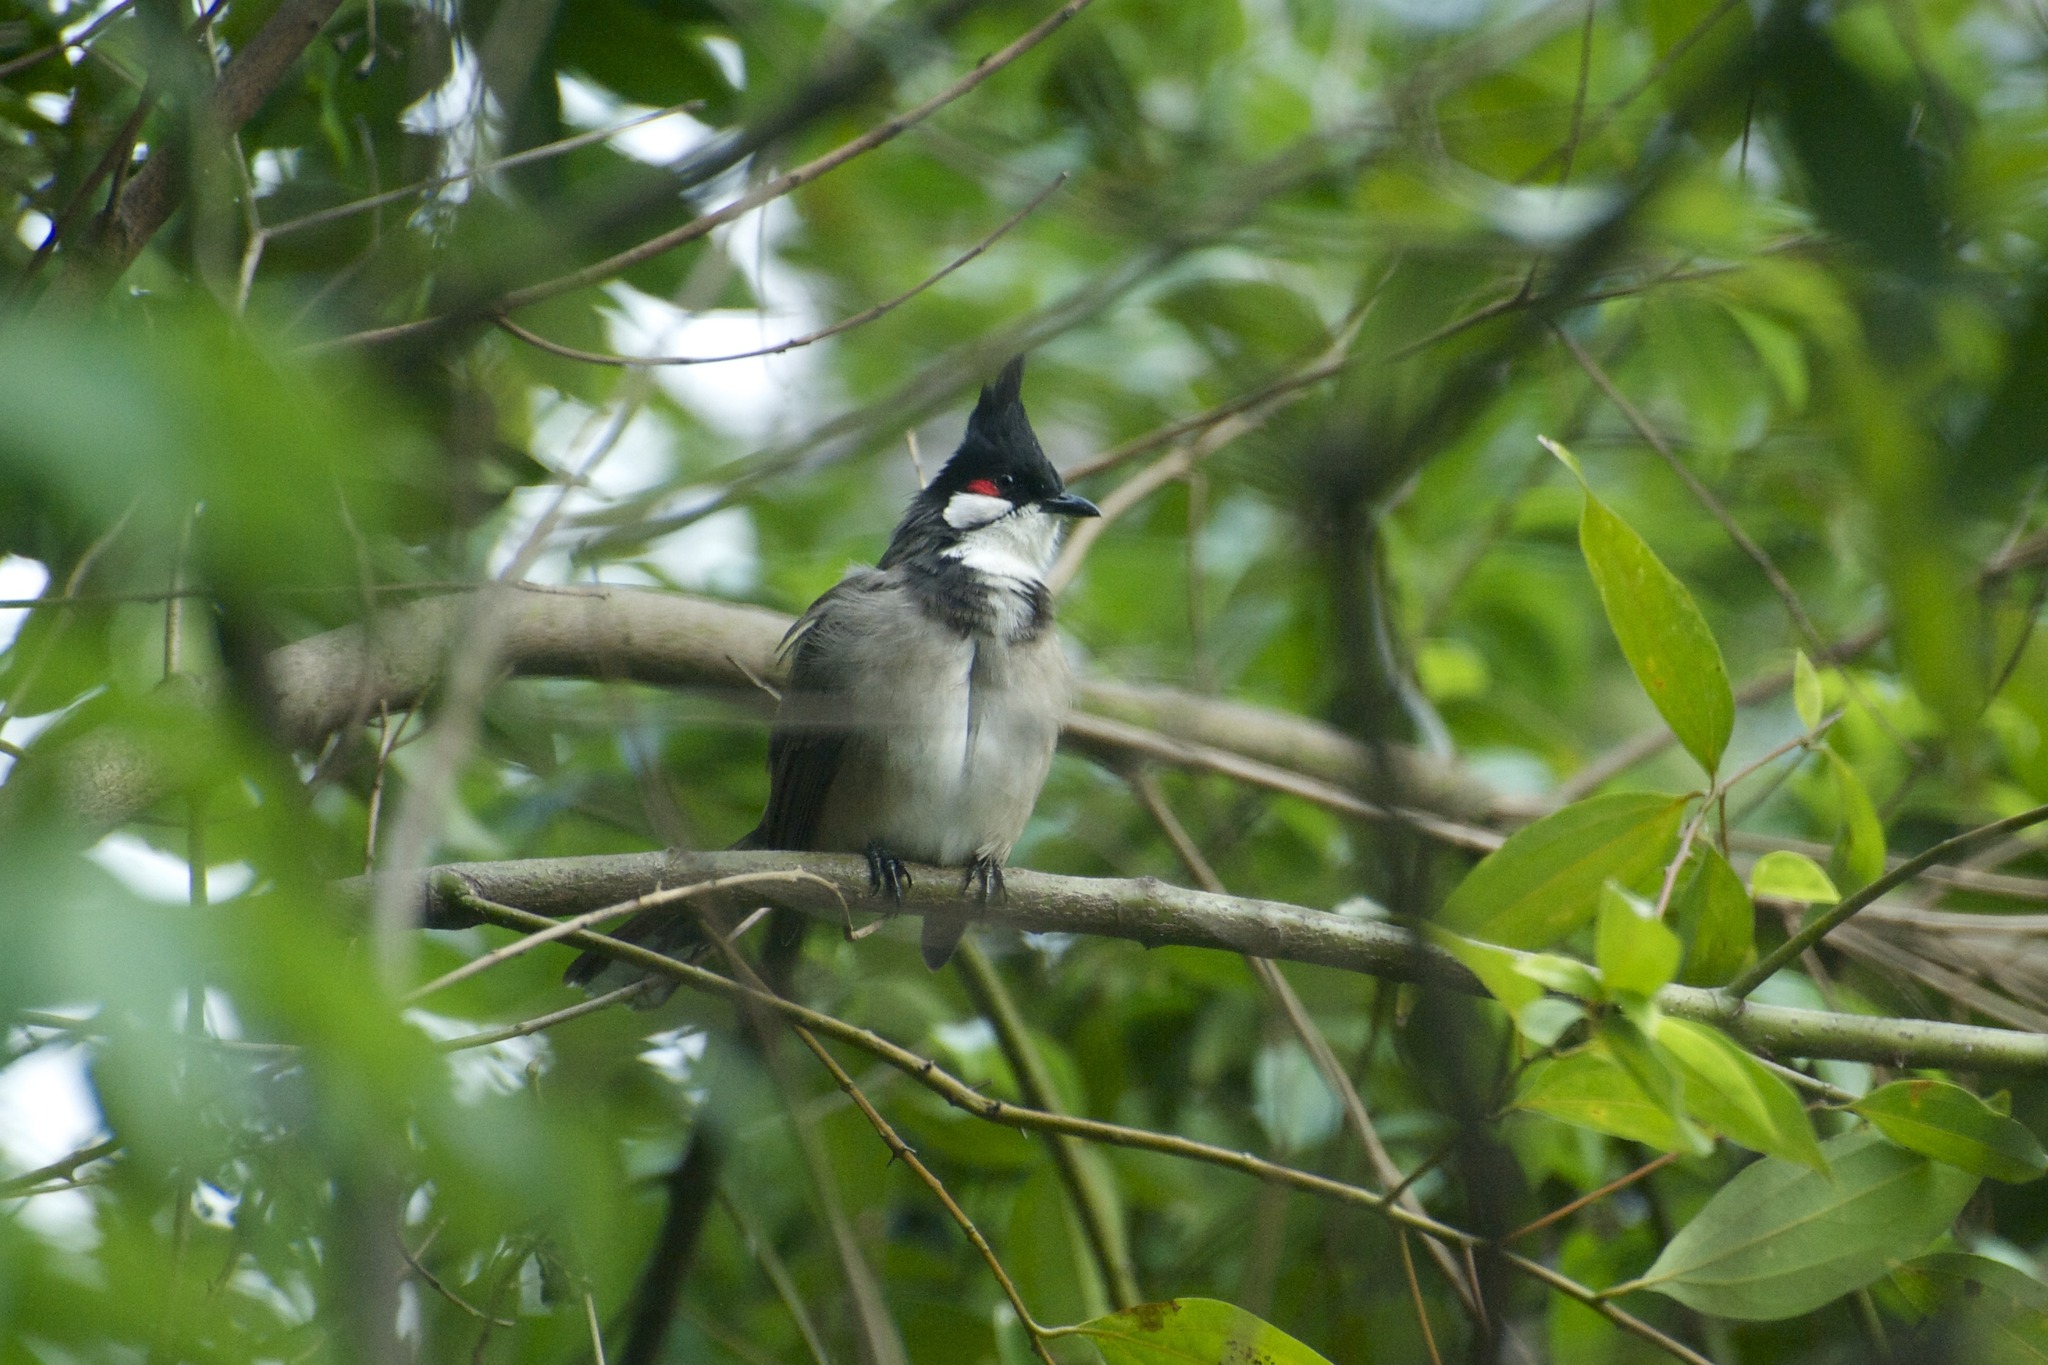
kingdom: Animalia
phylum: Chordata
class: Aves
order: Passeriformes
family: Pycnonotidae
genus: Pycnonotus
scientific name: Pycnonotus jocosus
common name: Red-whiskered bulbul
